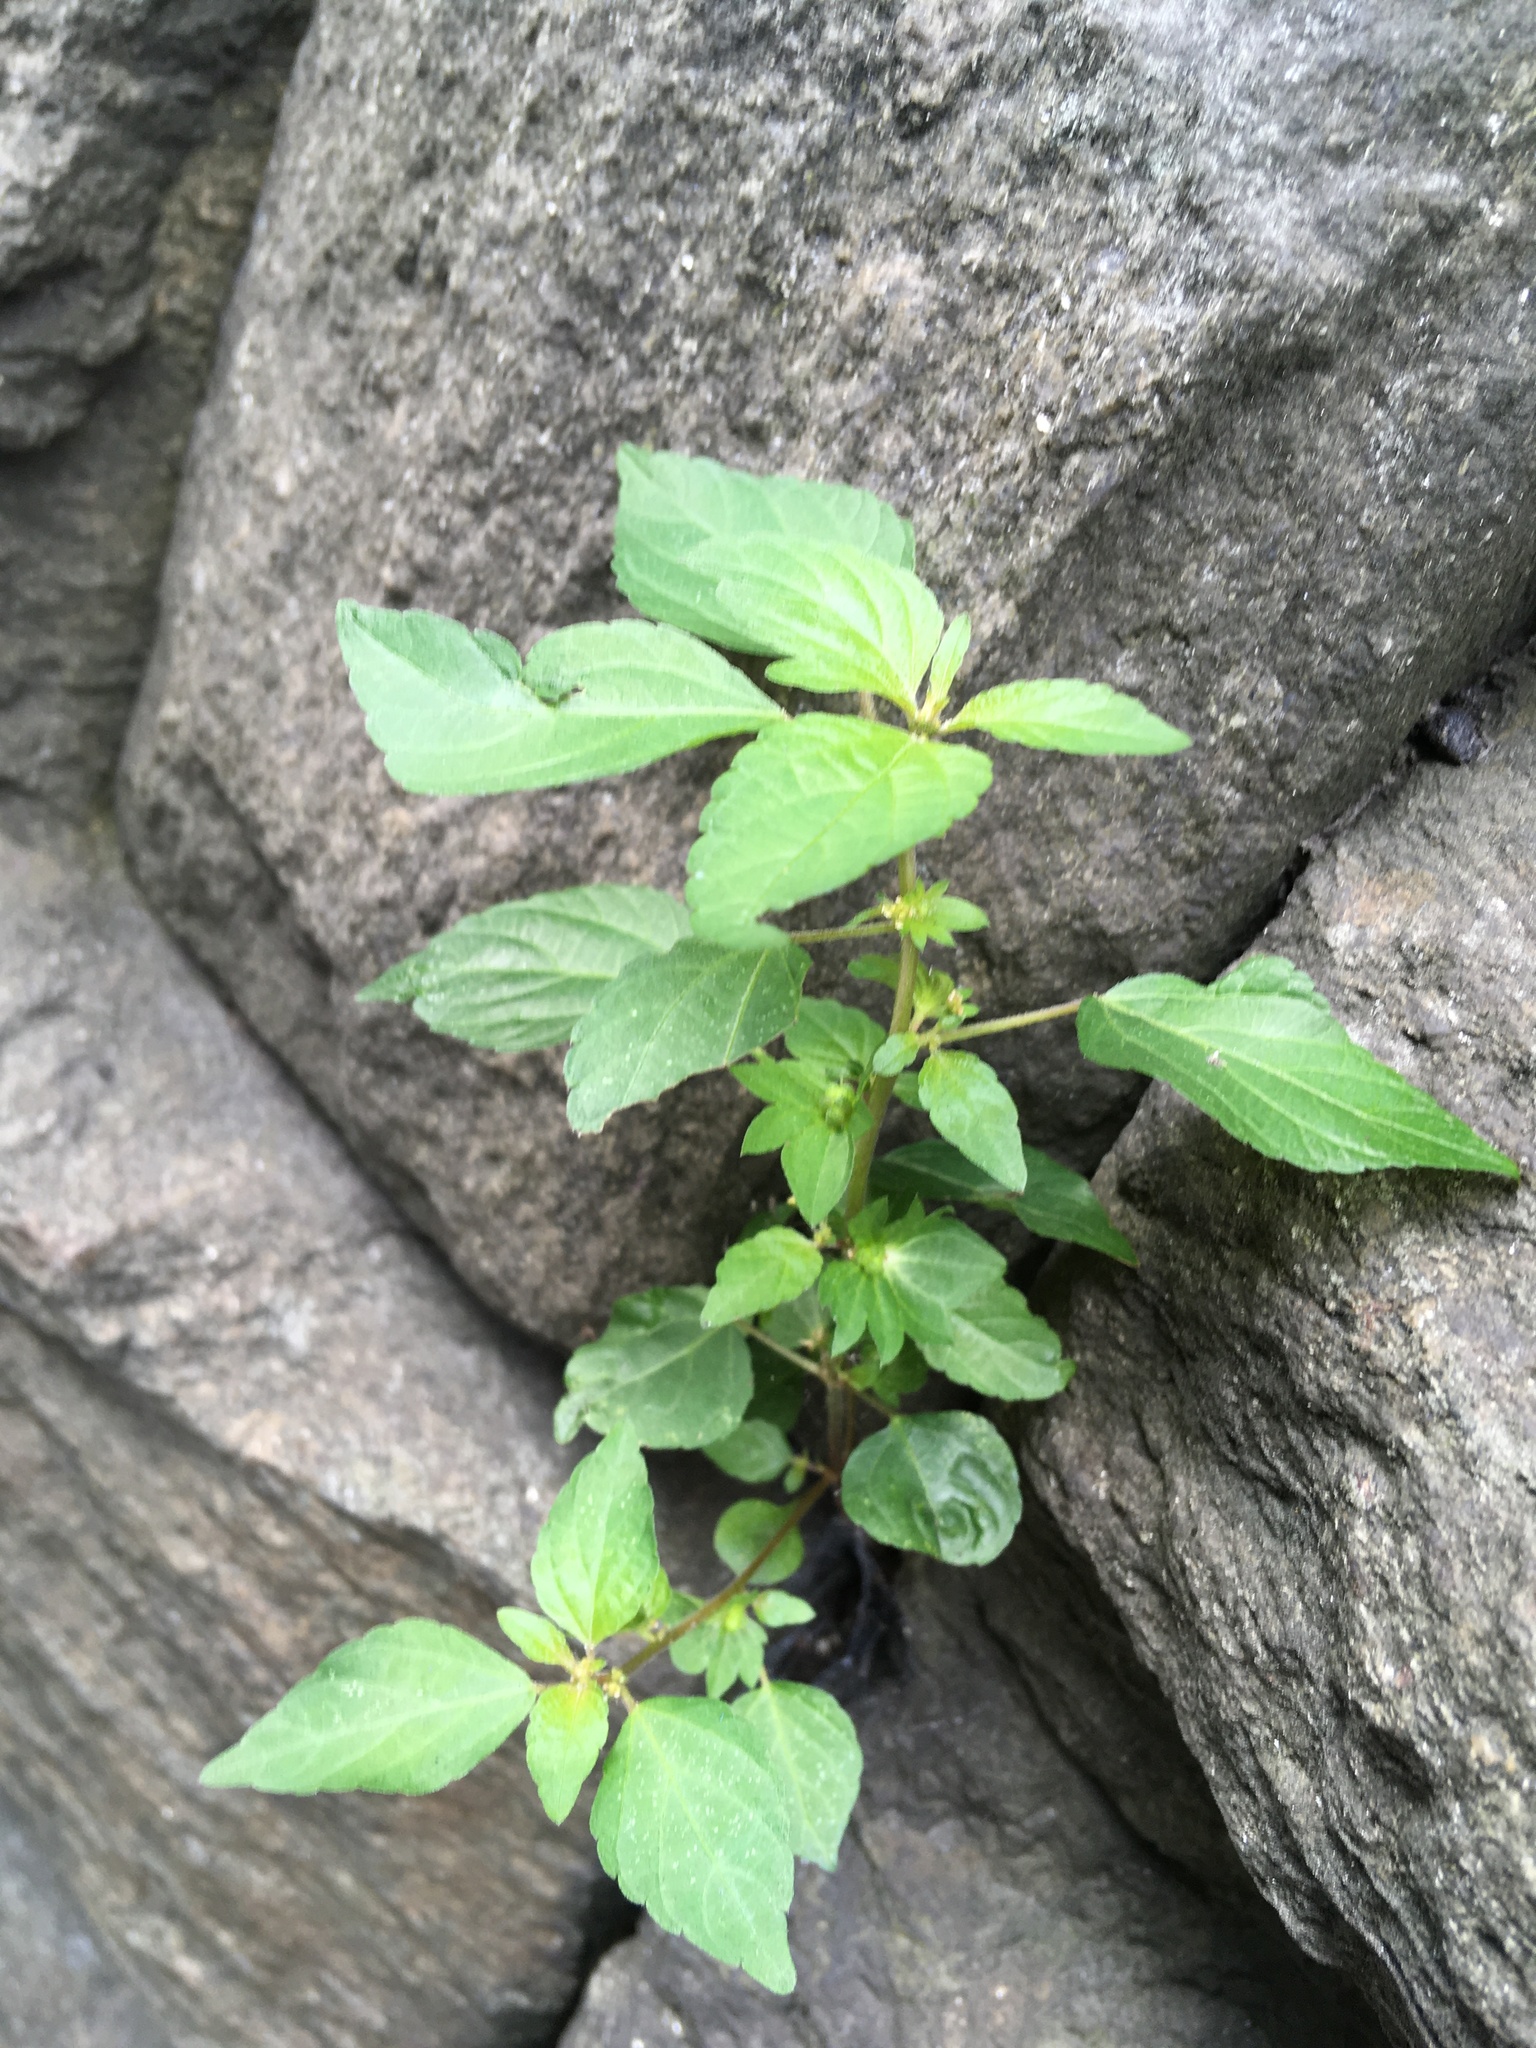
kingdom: Plantae
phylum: Tracheophyta
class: Magnoliopsida
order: Malpighiales
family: Euphorbiaceae
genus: Acalypha
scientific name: Acalypha rhomboidea
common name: Rhombic copperleaf
